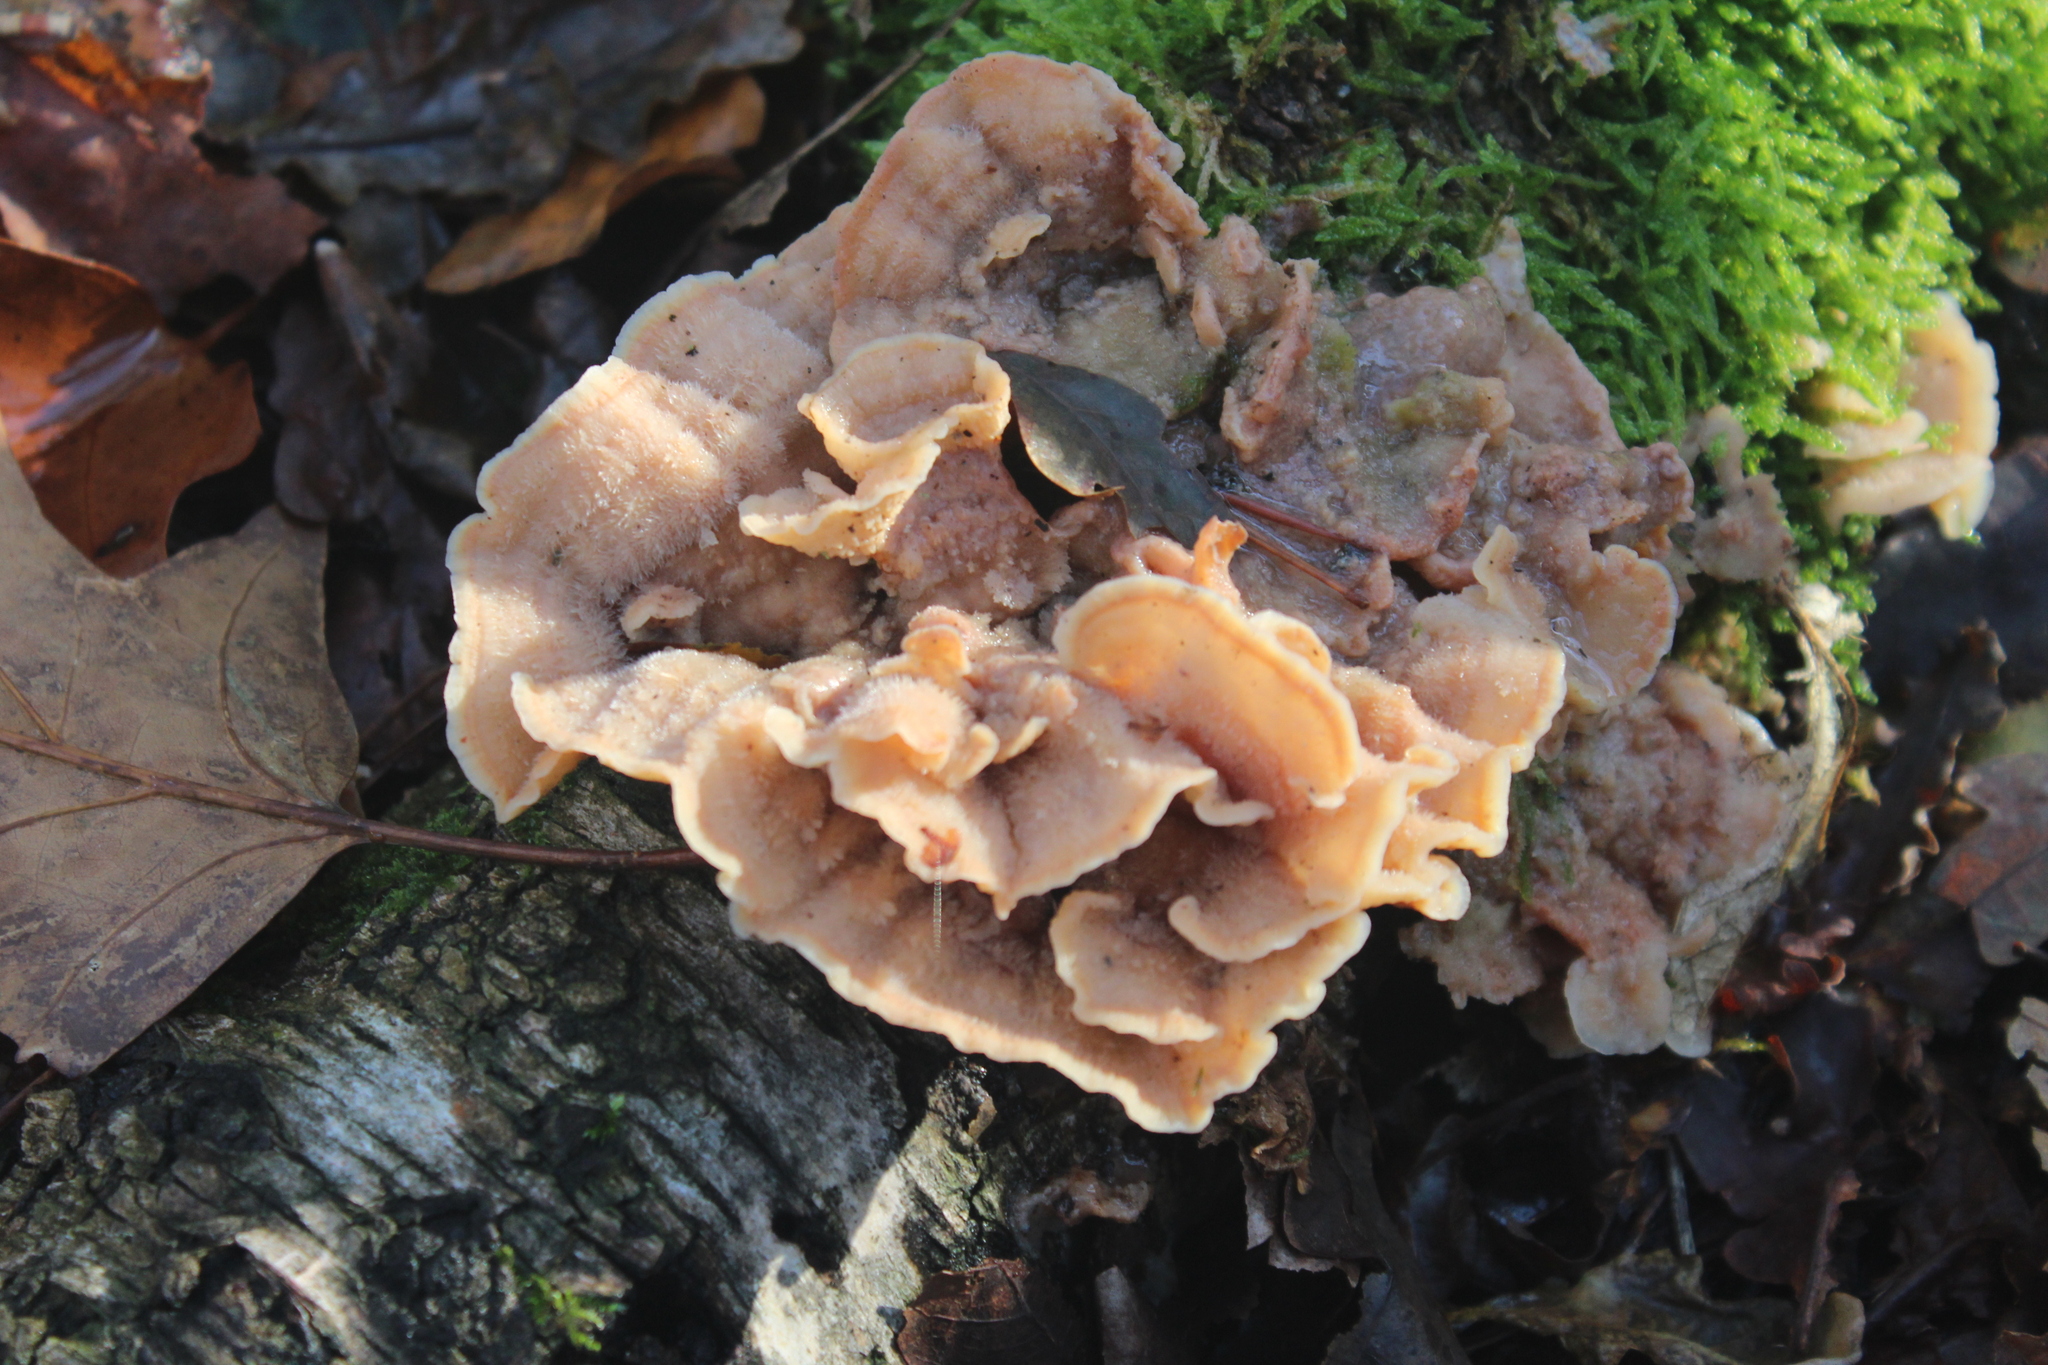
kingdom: Fungi
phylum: Basidiomycota
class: Agaricomycetes
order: Polyporales
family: Meruliaceae
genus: Phlebia
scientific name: Phlebia tremellosa
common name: Jelly rot
